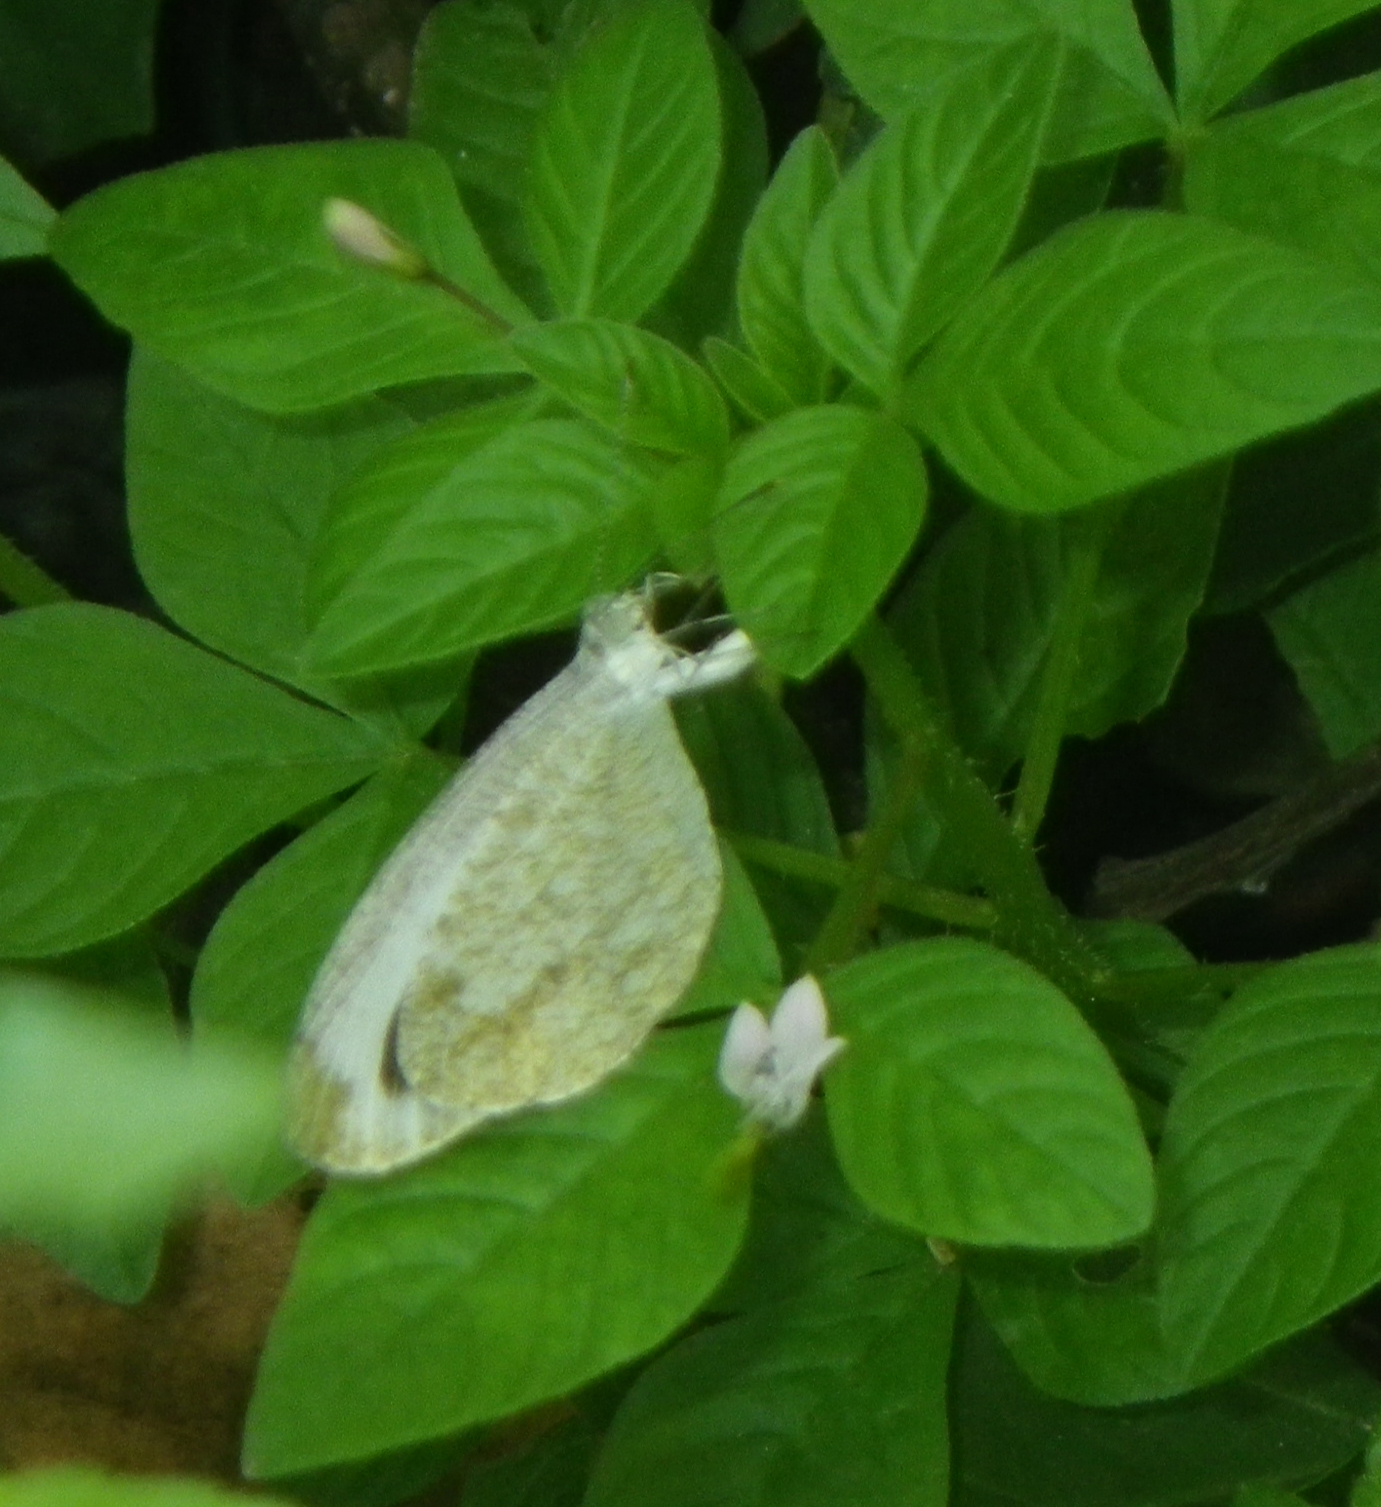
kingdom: Animalia
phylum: Arthropoda
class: Insecta
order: Lepidoptera
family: Pieridae
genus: Leptosia
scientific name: Leptosia nina
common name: Psyche
